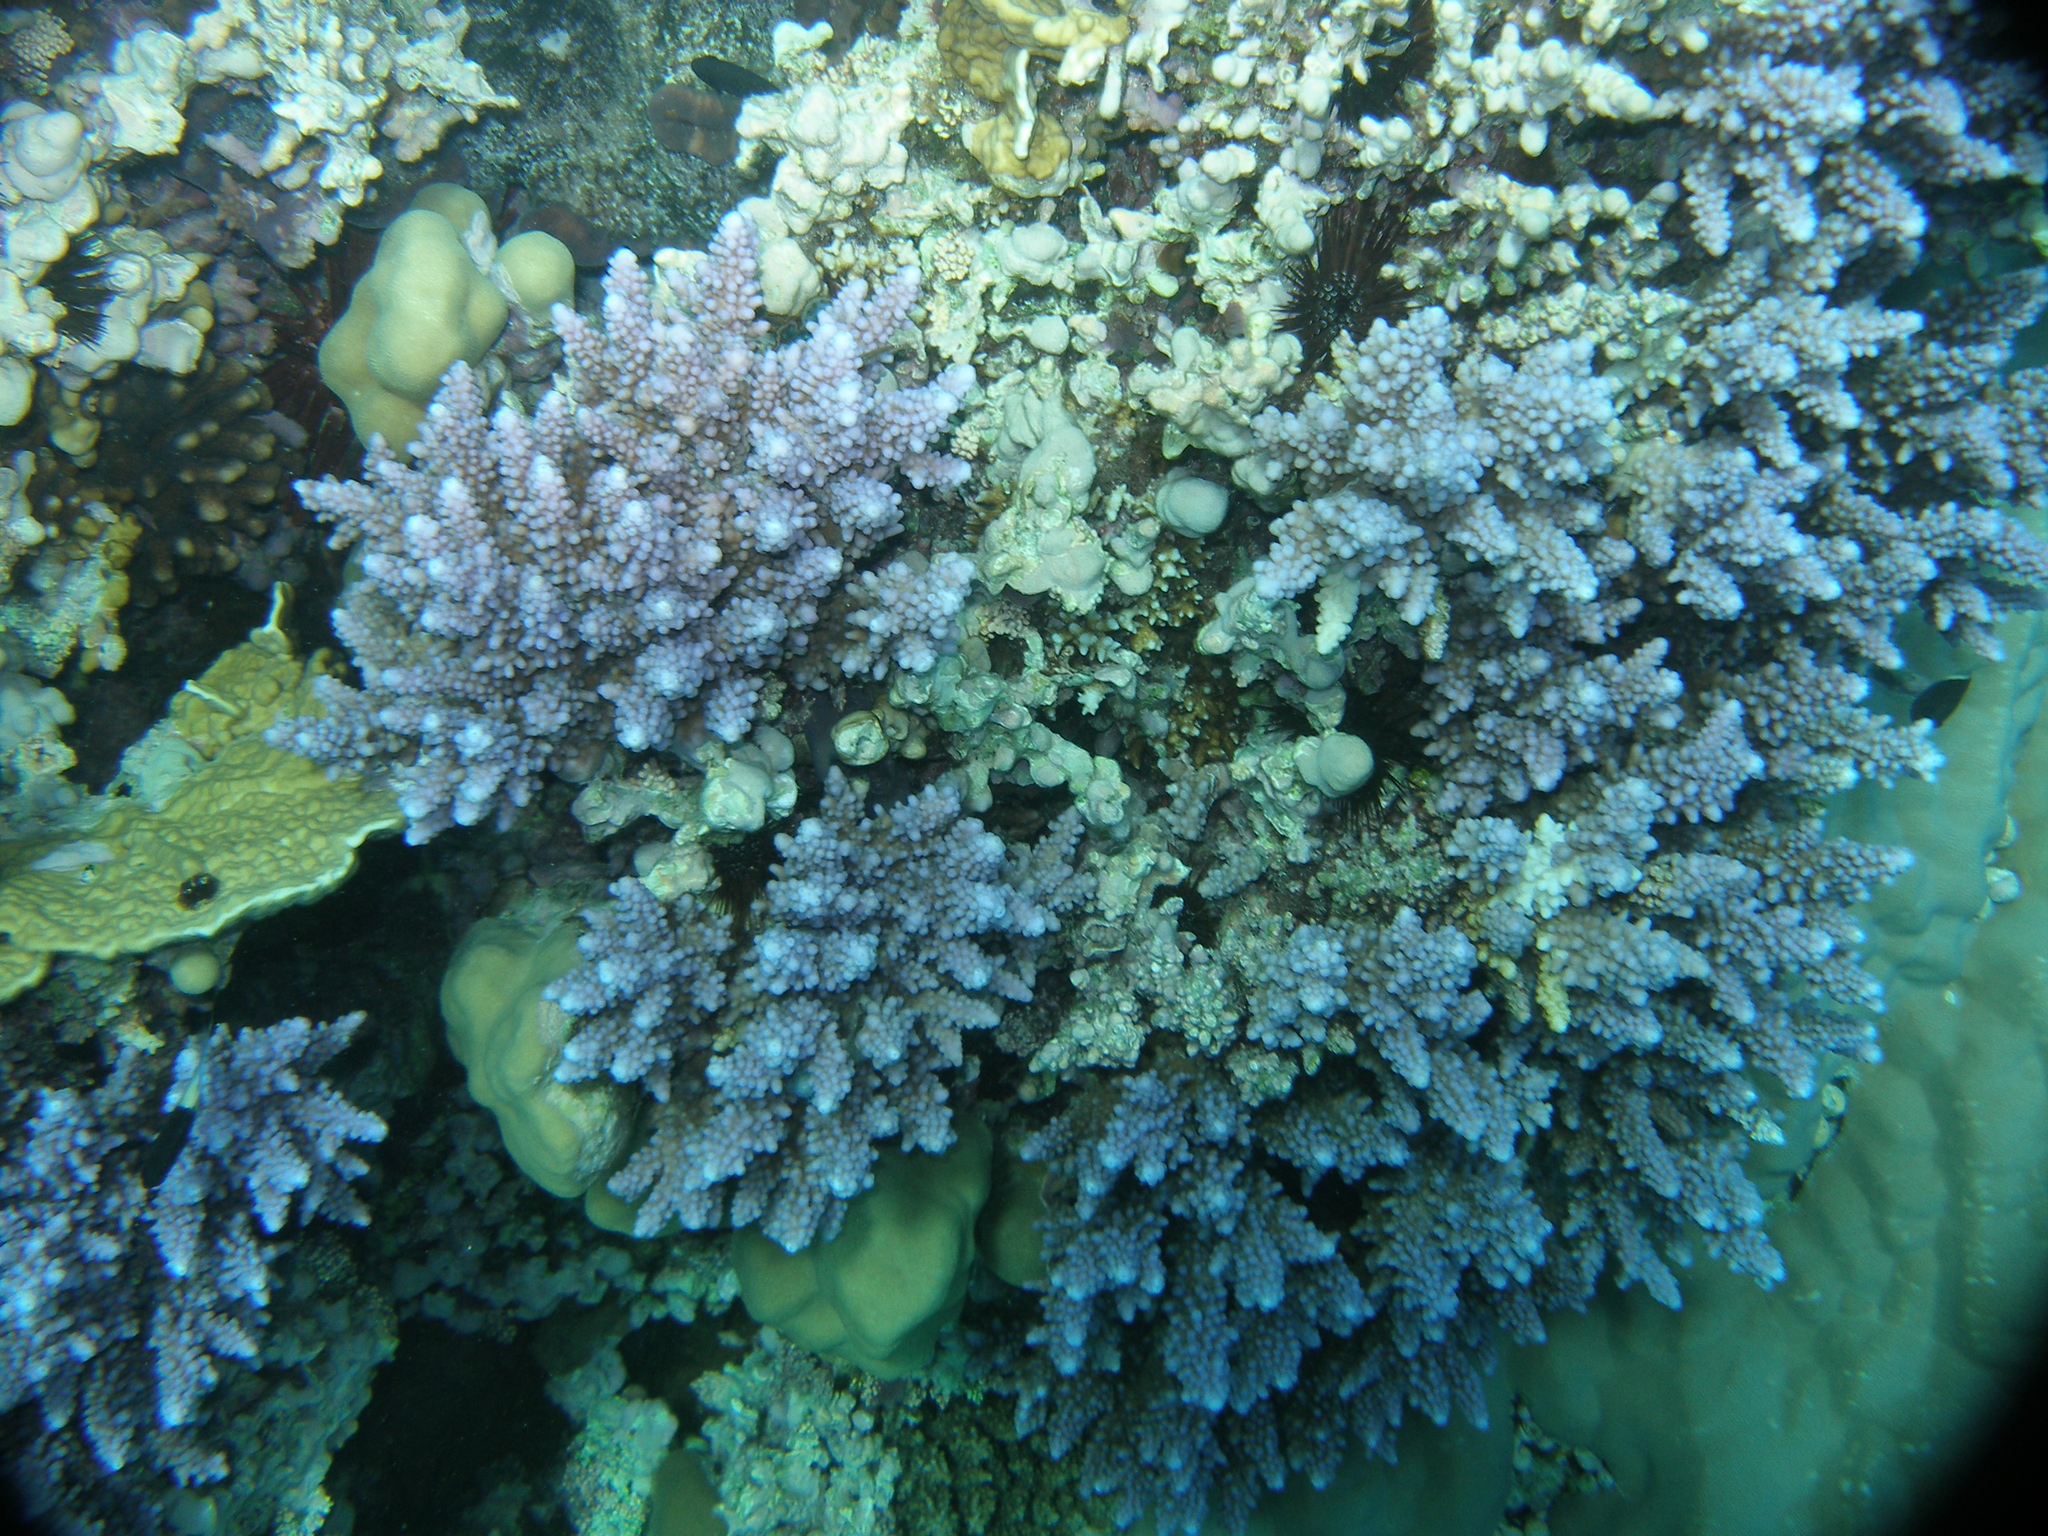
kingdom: Animalia
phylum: Cnidaria
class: Anthozoa
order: Scleractinia
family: Acroporidae
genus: Acropora
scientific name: Acropora hemprichii
